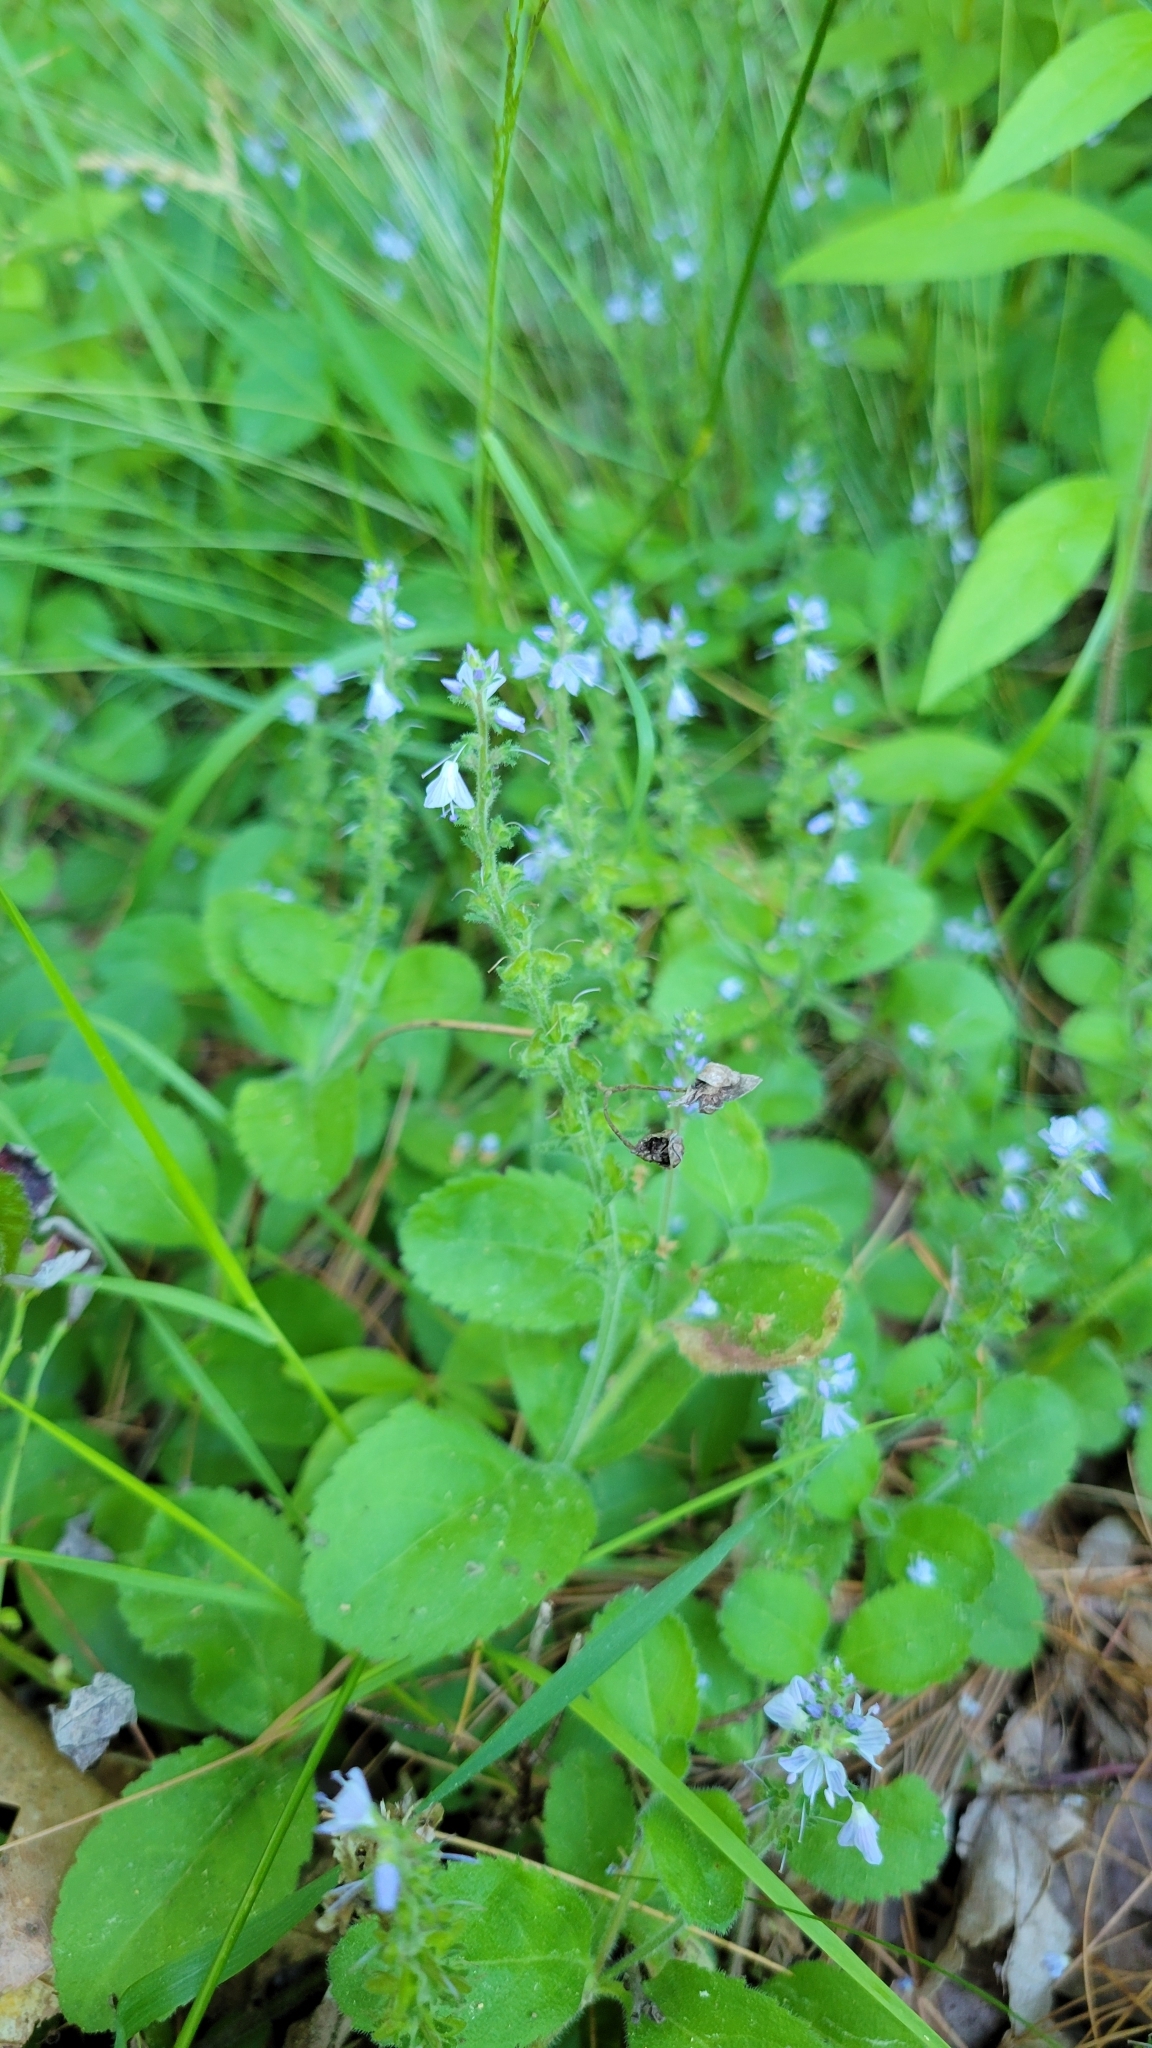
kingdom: Plantae
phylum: Tracheophyta
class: Magnoliopsida
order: Lamiales
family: Plantaginaceae
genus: Veronica
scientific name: Veronica officinalis
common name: Common speedwell
